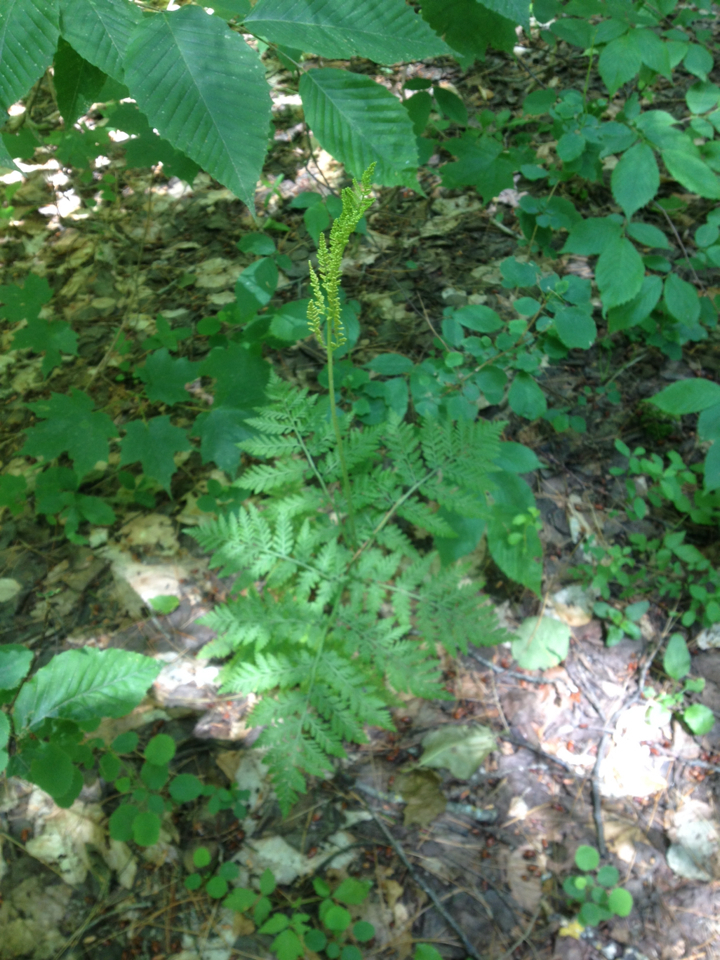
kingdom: Plantae
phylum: Tracheophyta
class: Polypodiopsida
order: Ophioglossales
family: Ophioglossaceae
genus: Botrypus
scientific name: Botrypus virginianus
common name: Common grapefern
